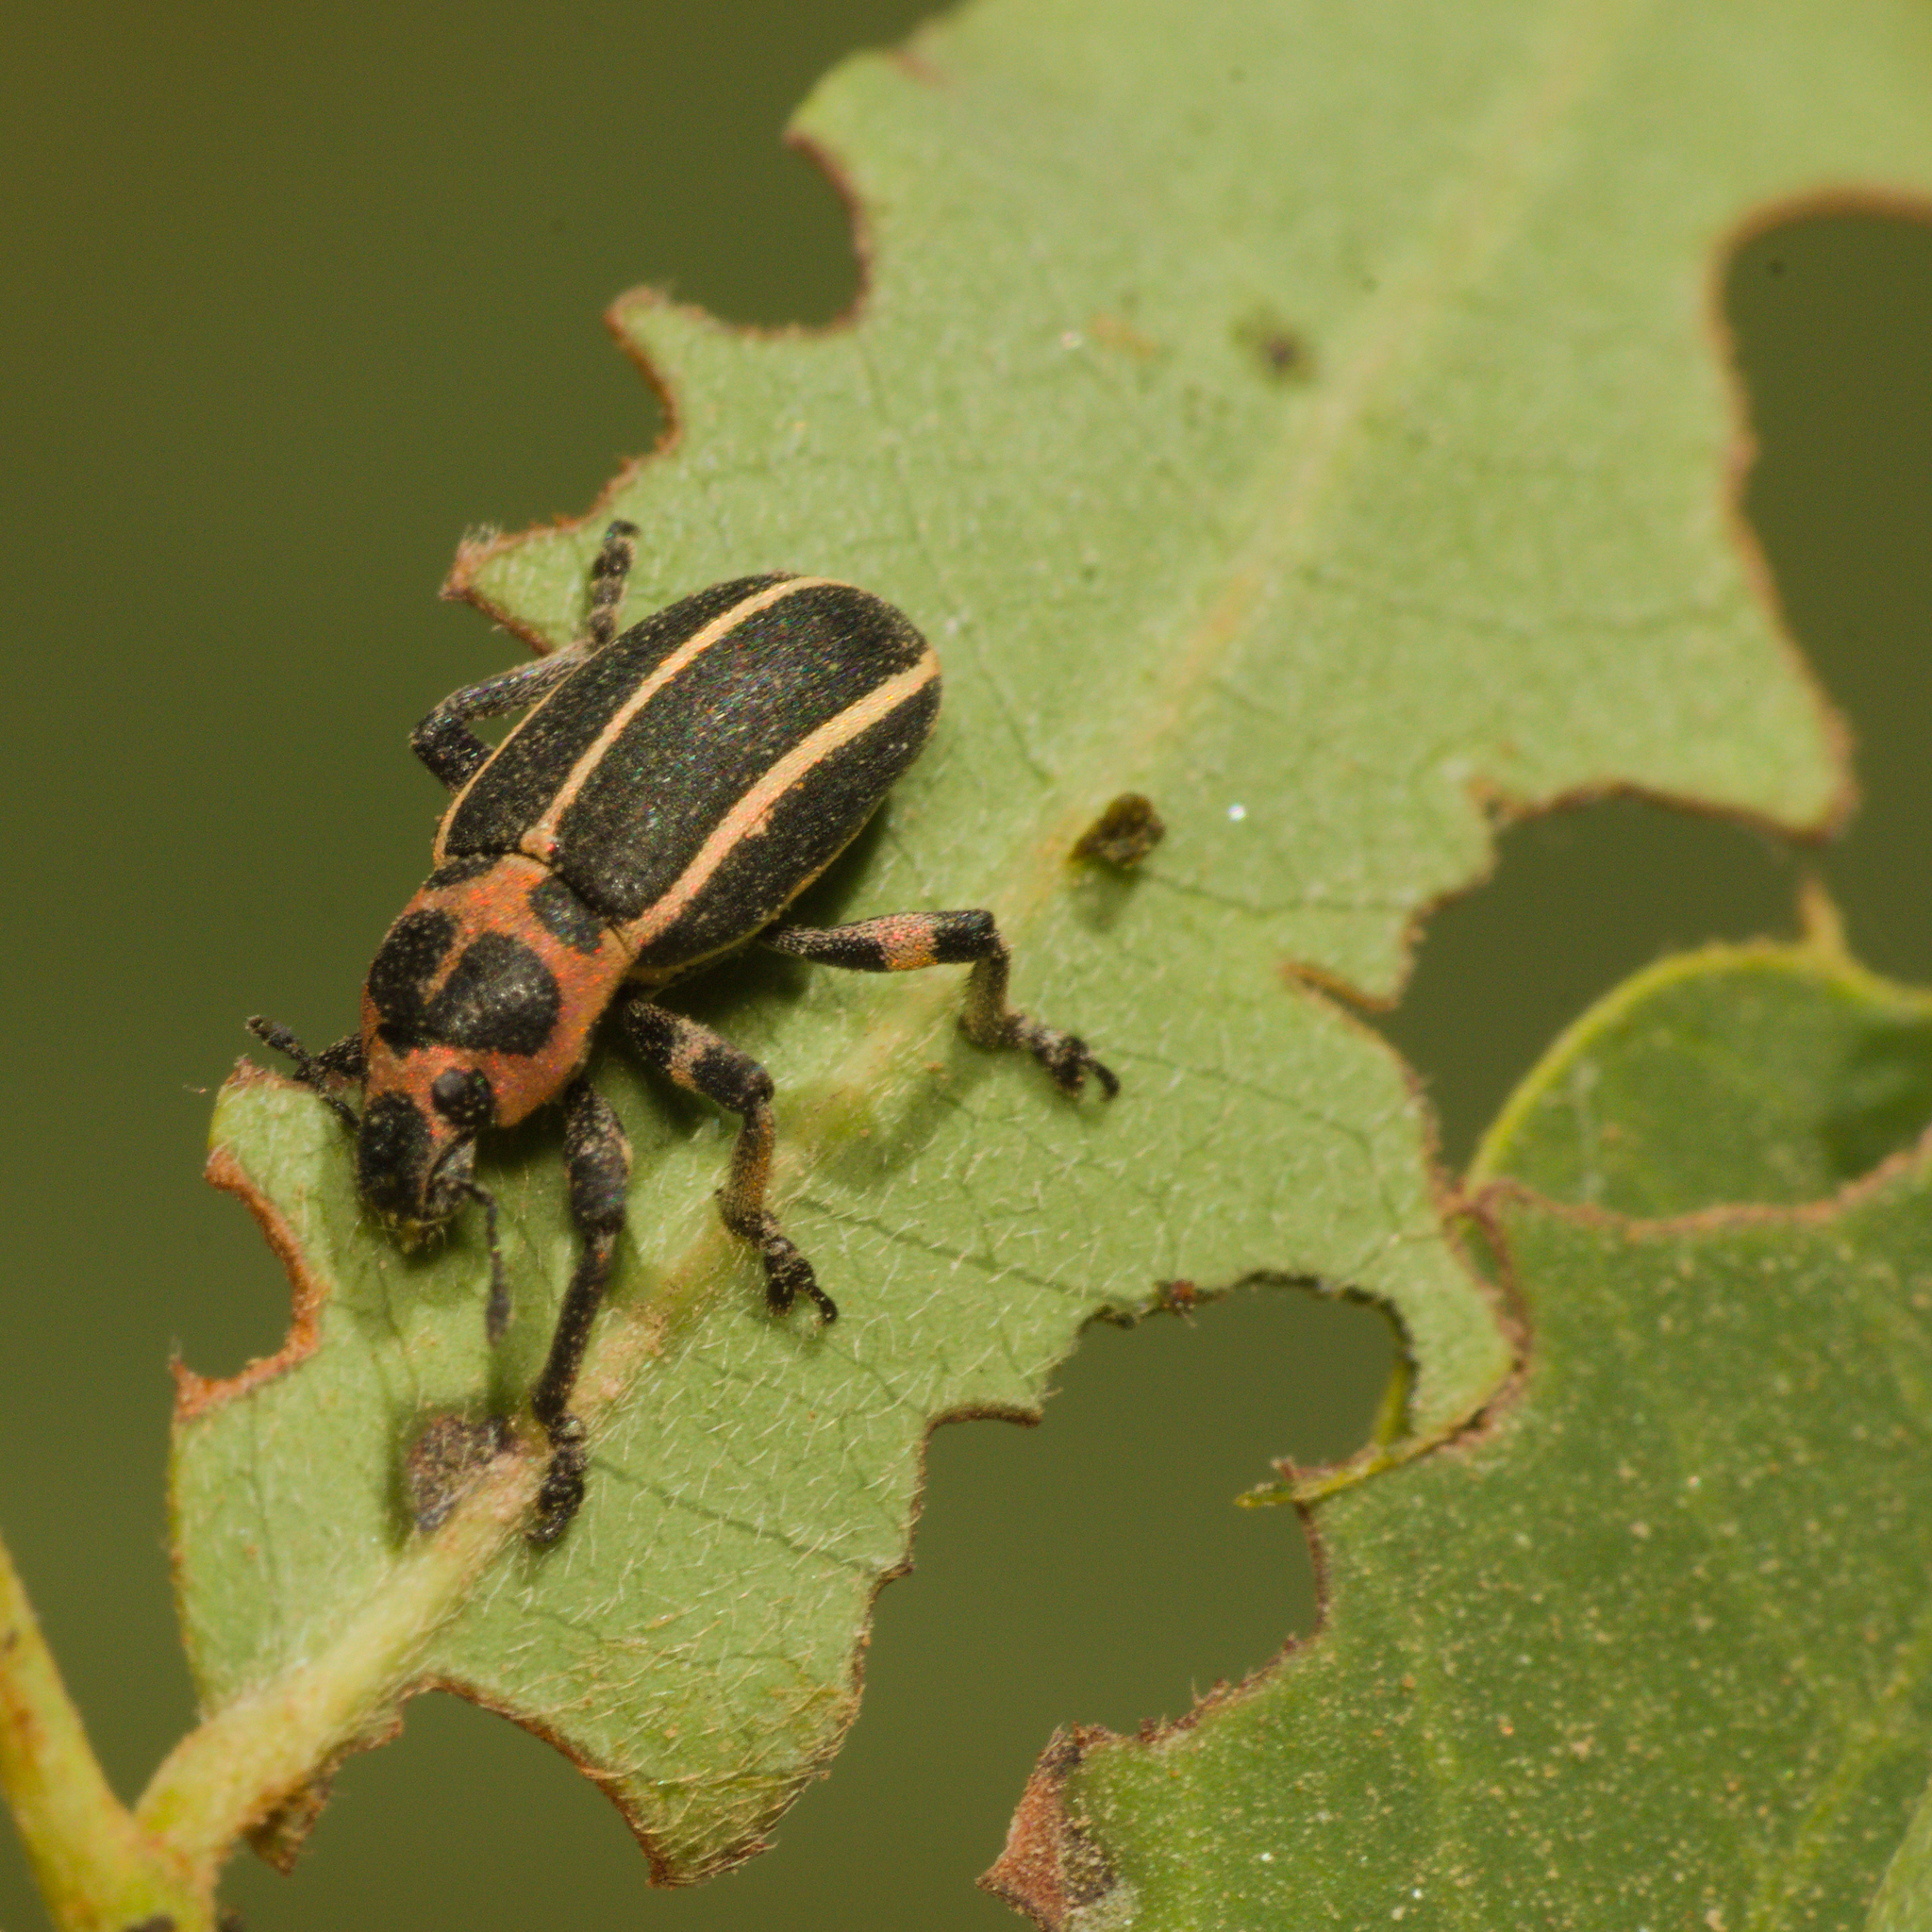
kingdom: Animalia
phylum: Arthropoda
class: Insecta
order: Coleoptera
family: Curculionidae
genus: Eudiagogus
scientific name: Eudiagogus episcopalis
